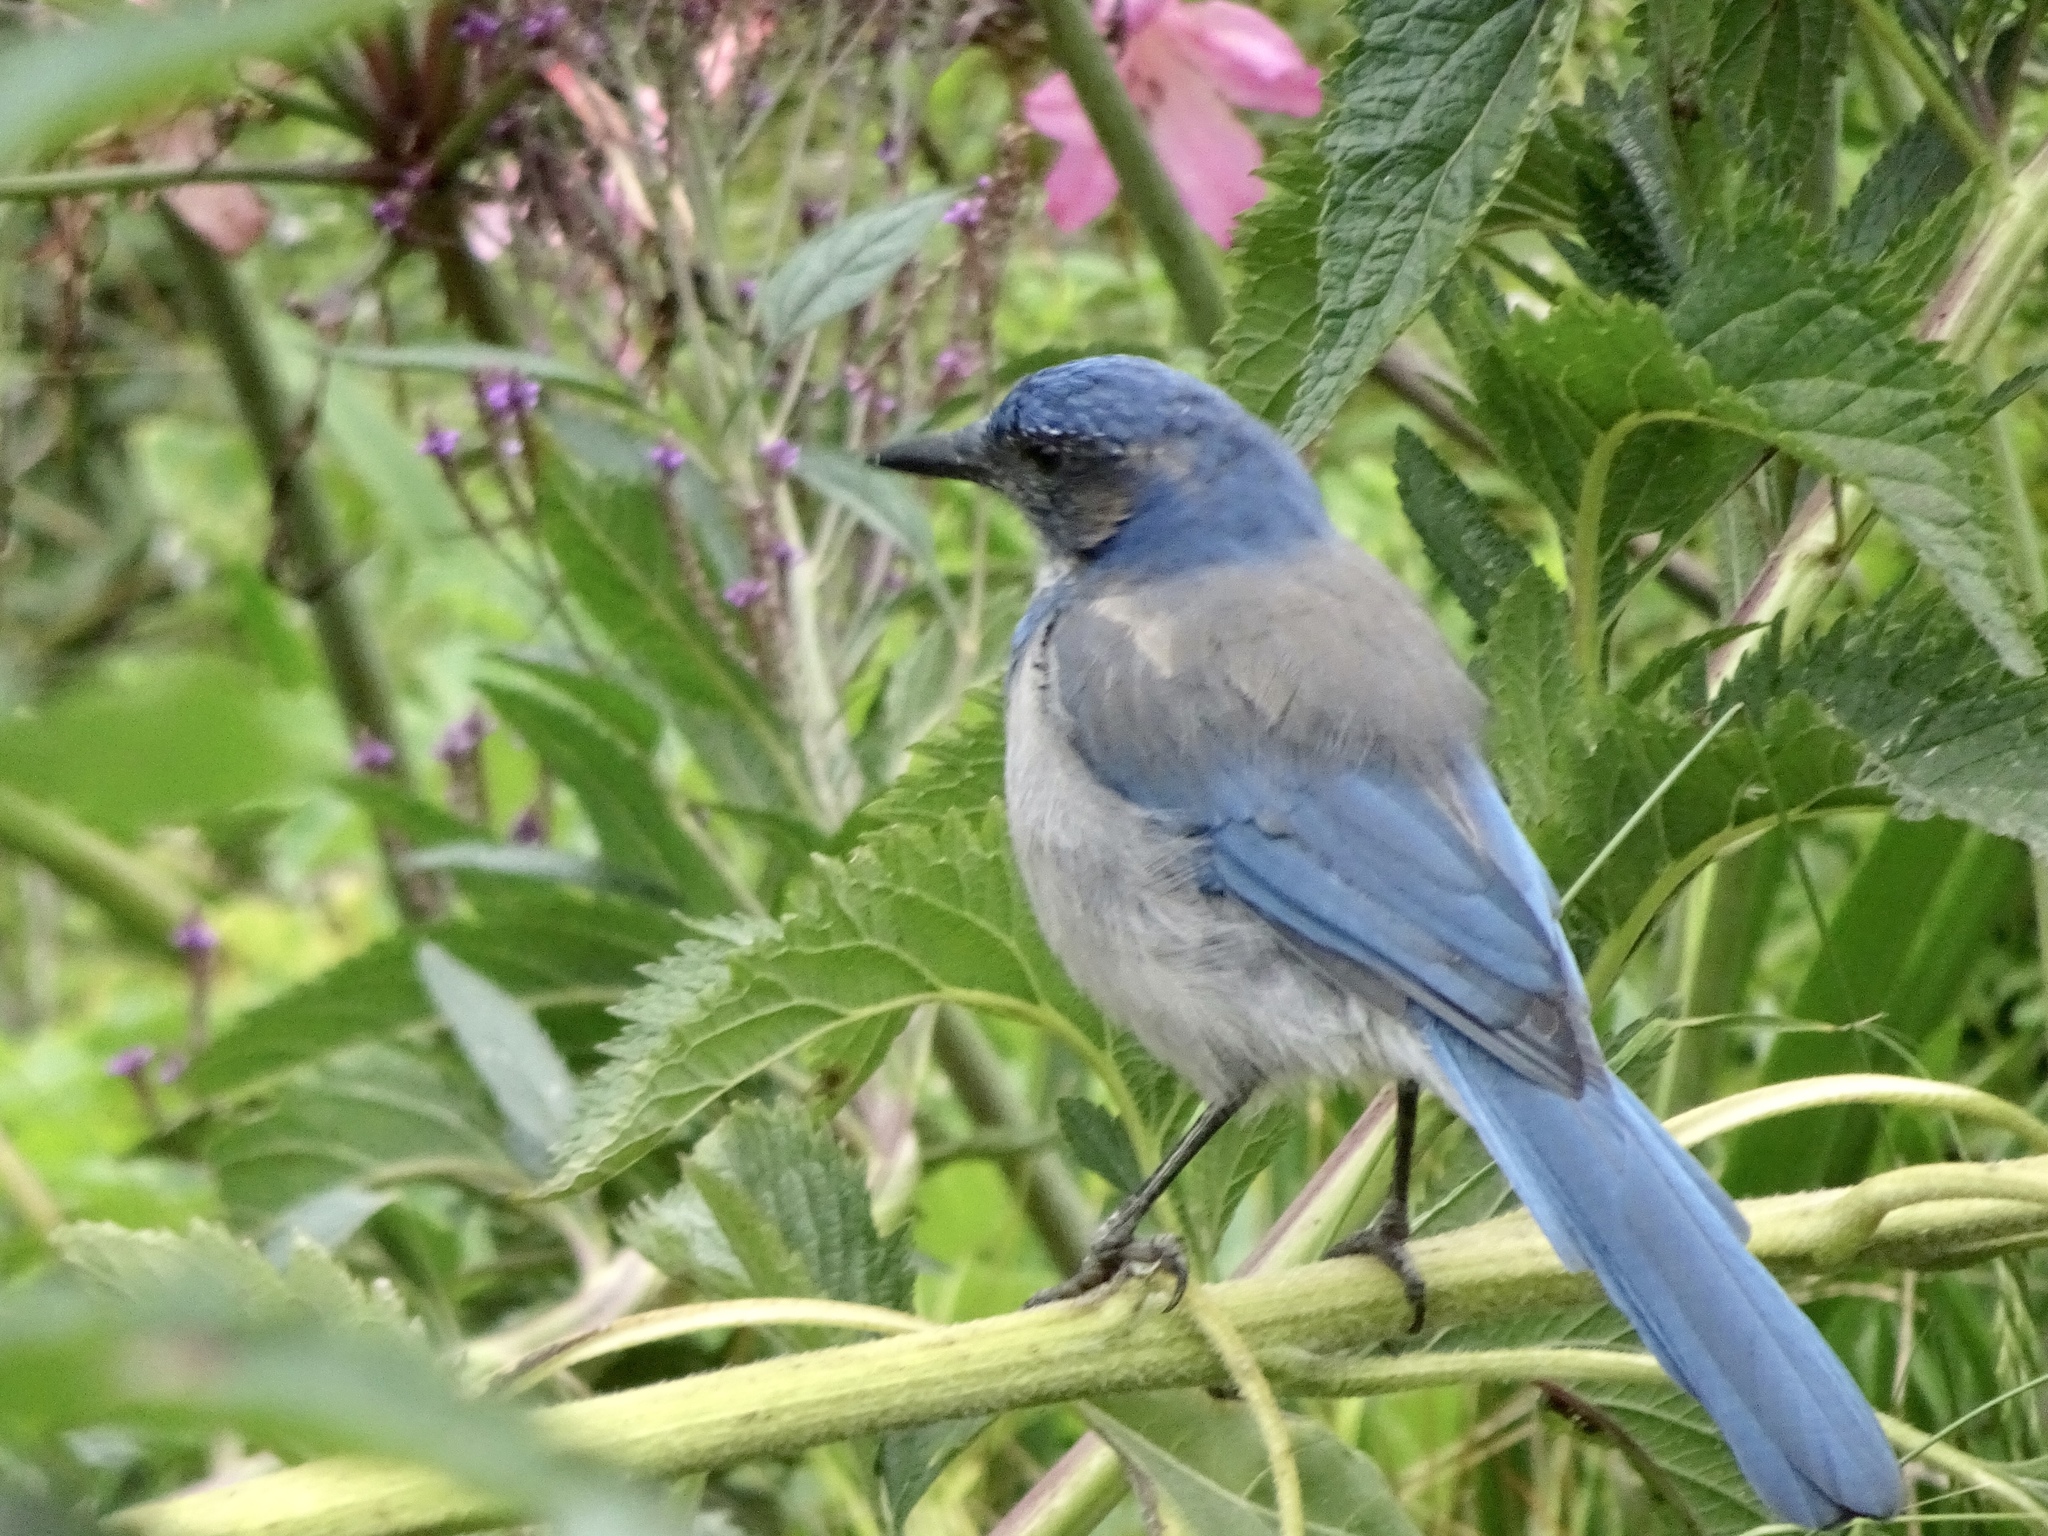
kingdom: Animalia
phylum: Chordata
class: Aves
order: Passeriformes
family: Corvidae
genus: Aphelocoma
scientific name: Aphelocoma californica
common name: California scrub-jay
